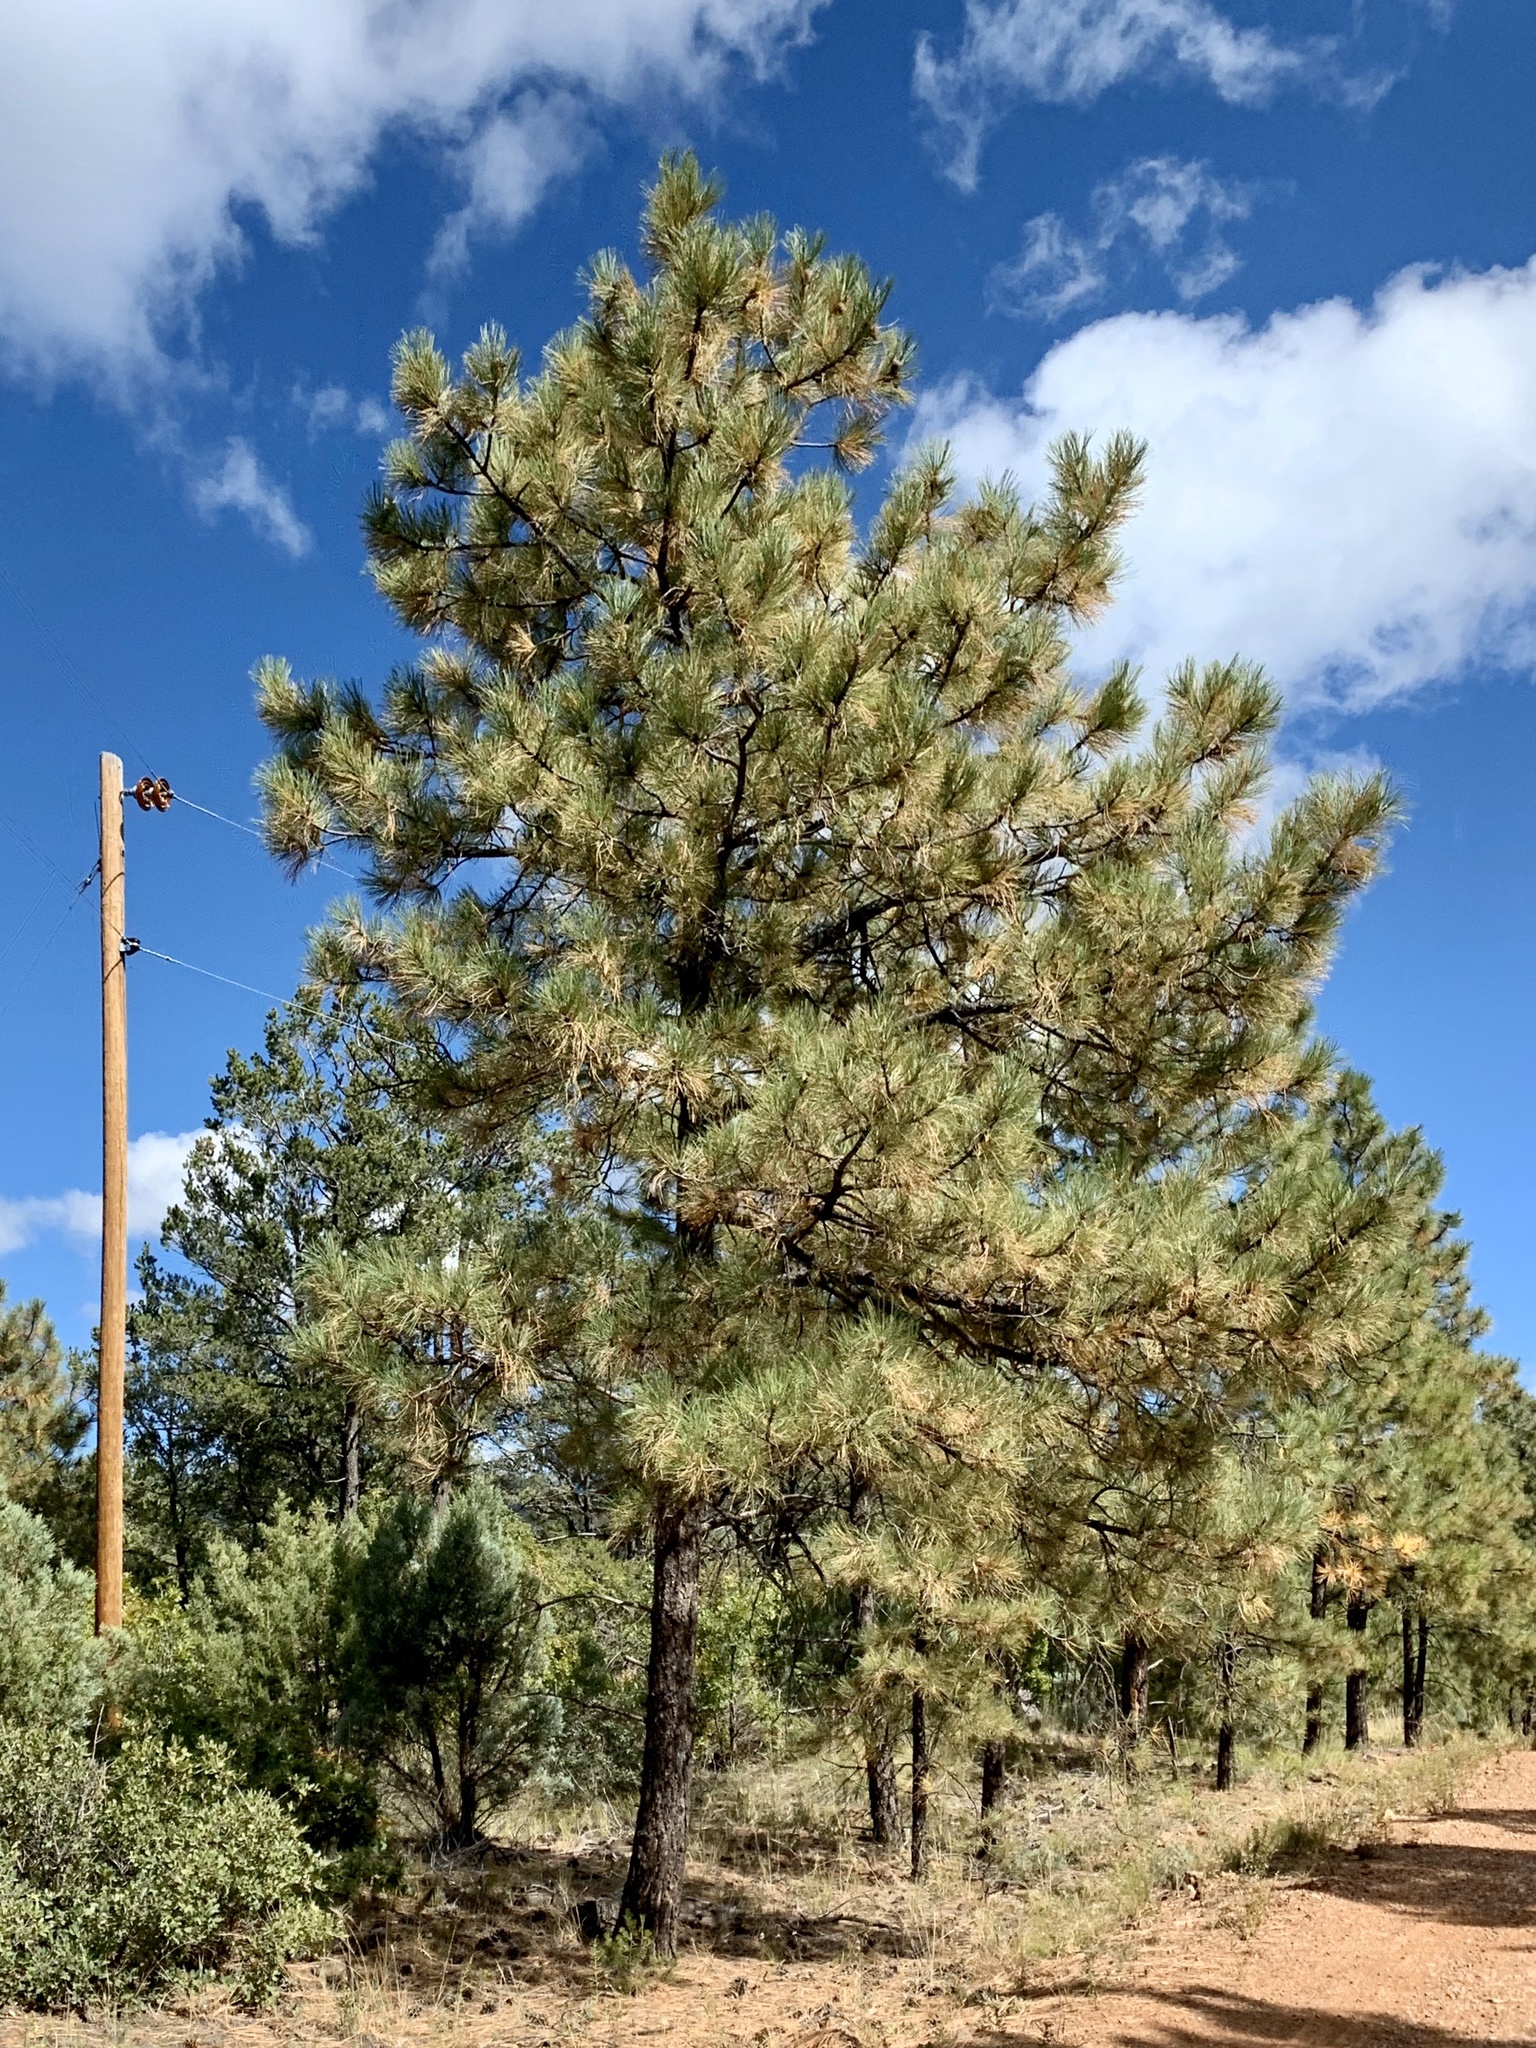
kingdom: Plantae
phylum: Tracheophyta
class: Pinopsida
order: Pinales
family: Pinaceae
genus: Pinus
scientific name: Pinus ponderosa
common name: Western yellow-pine
